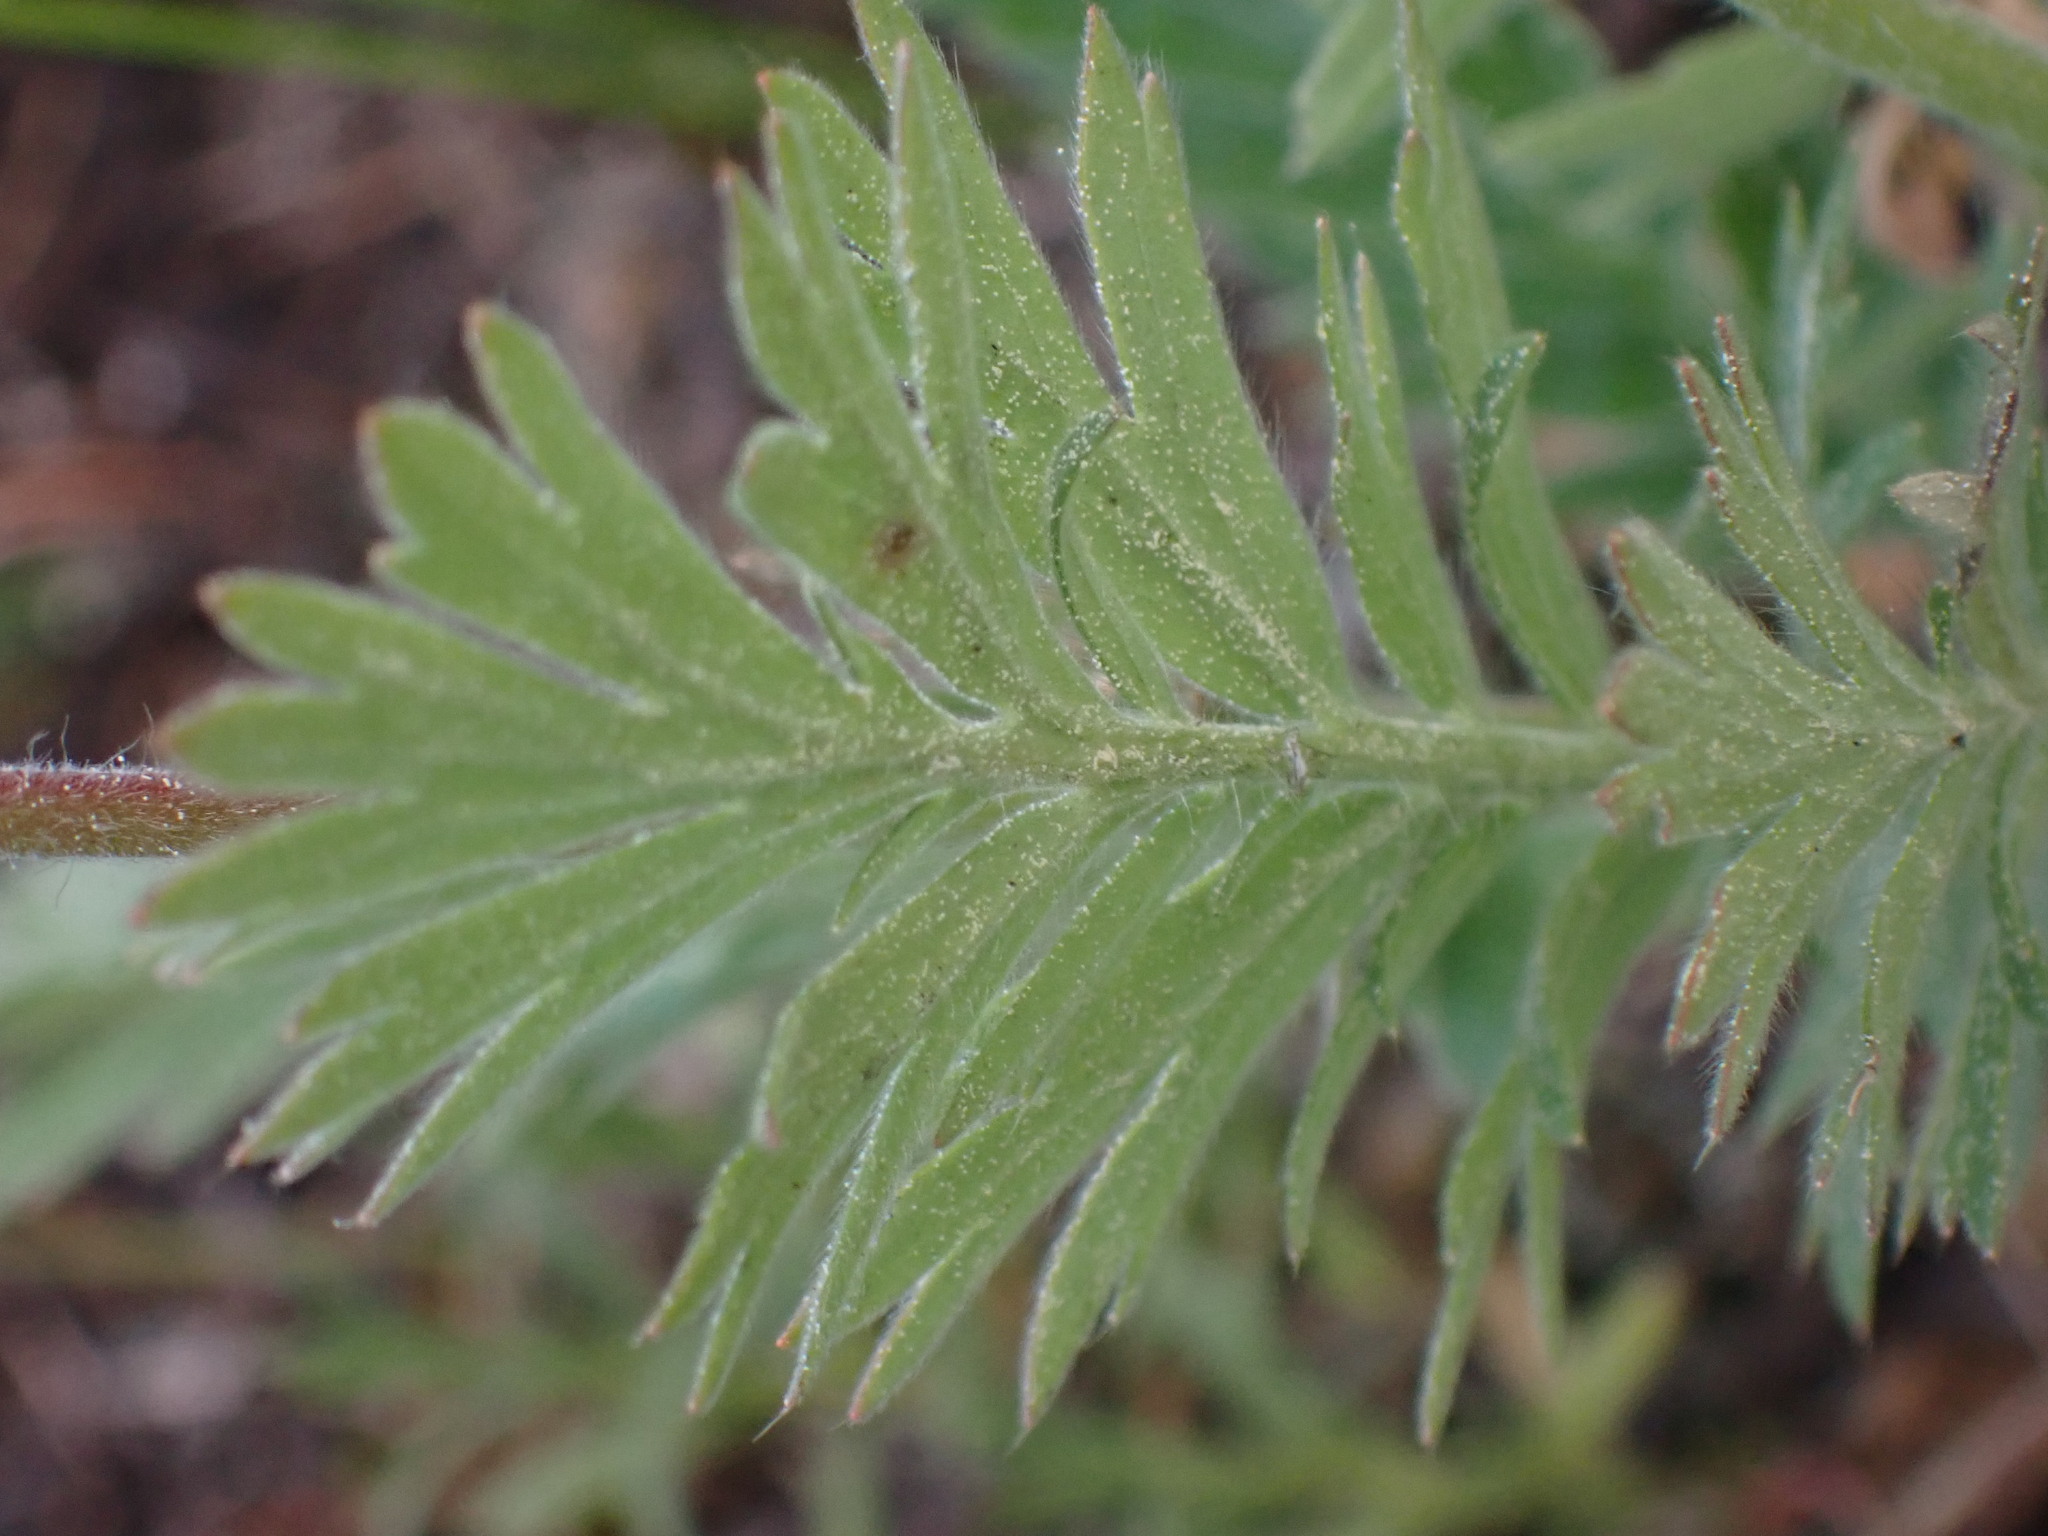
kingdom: Plantae
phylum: Tracheophyta
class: Magnoliopsida
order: Rosales
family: Rosaceae
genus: Geum
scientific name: Geum triflorum
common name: Old man's whiskers
